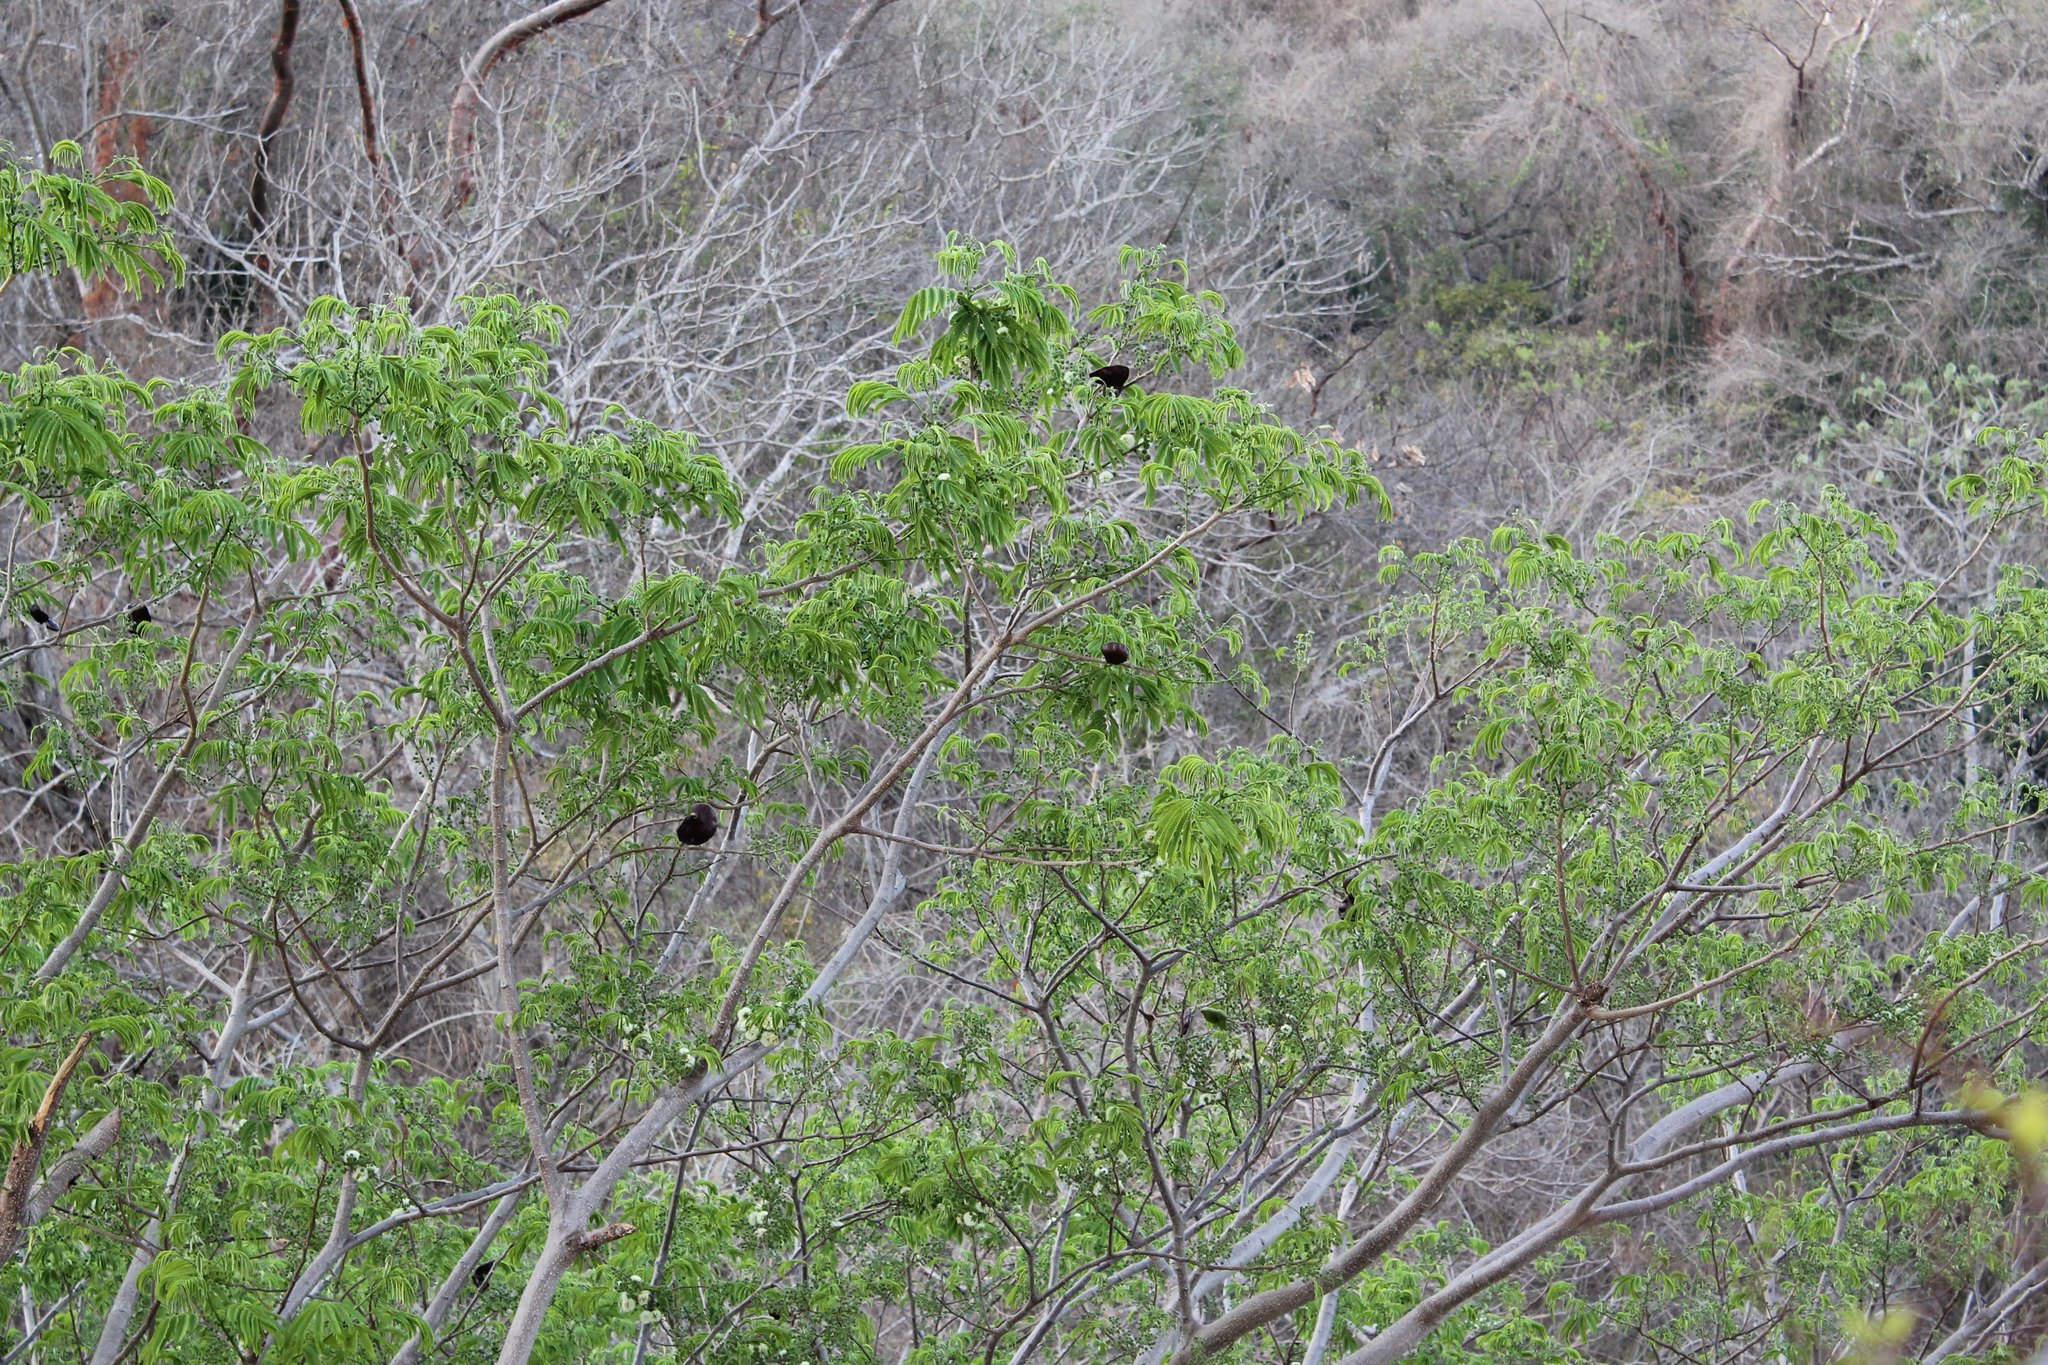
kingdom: Plantae
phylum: Tracheophyta
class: Magnoliopsida
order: Fabales
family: Fabaceae
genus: Enterolobium
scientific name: Enterolobium cyclocarpum
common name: Ear tree
